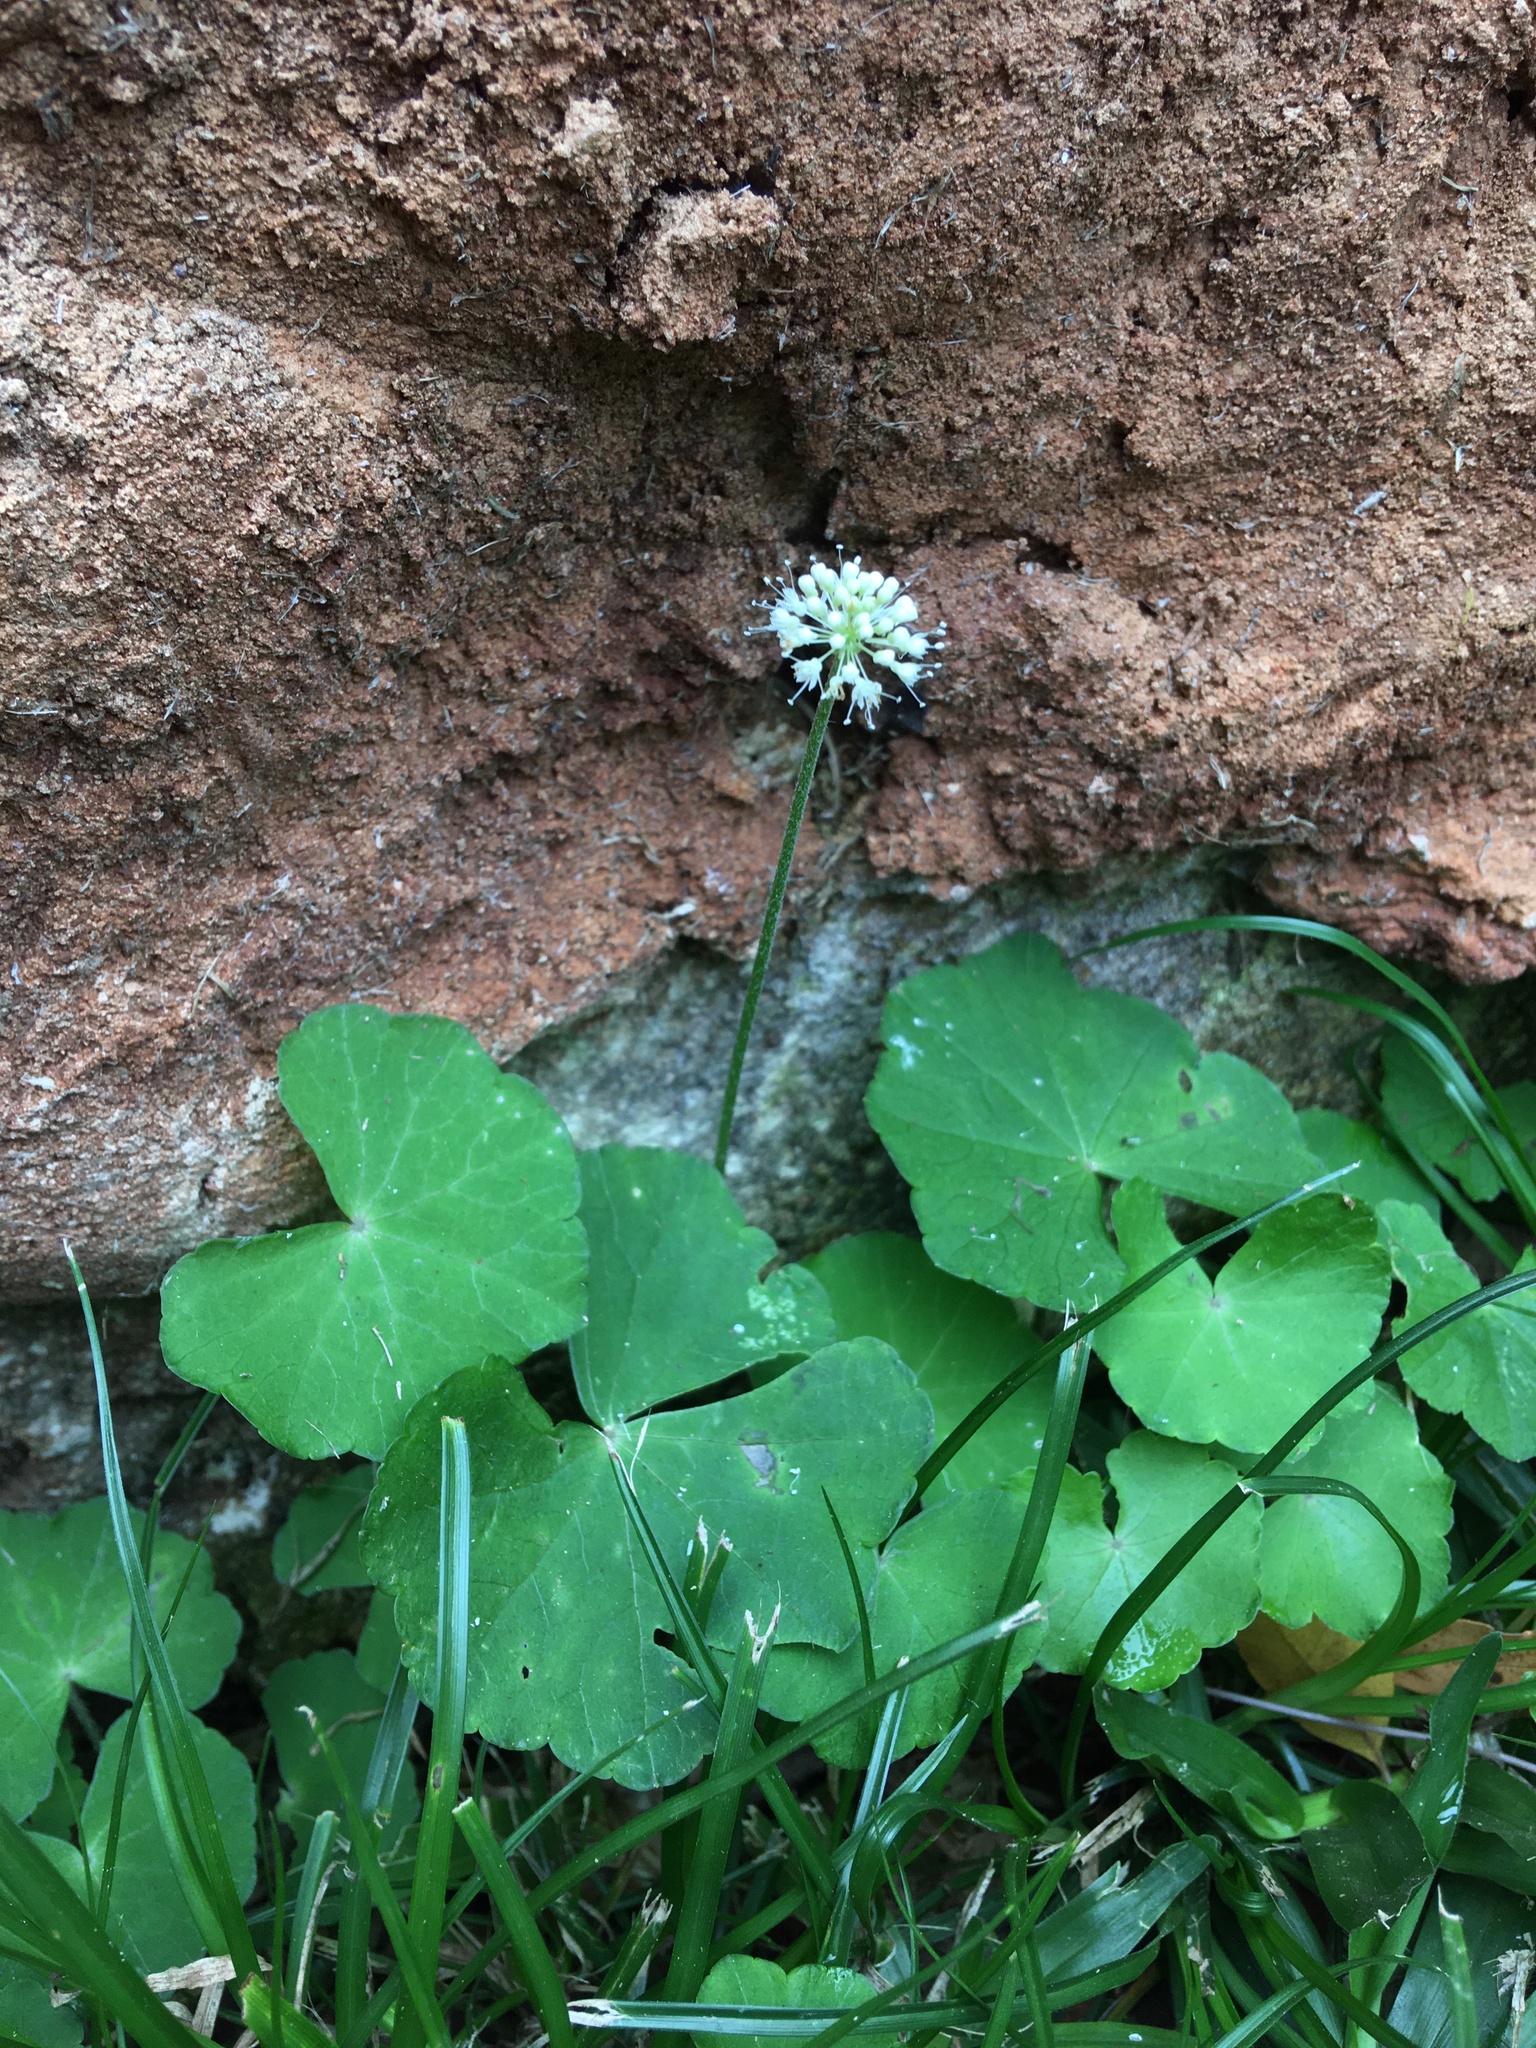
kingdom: Plantae
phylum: Tracheophyta
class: Magnoliopsida
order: Apiales
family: Araliaceae
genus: Hydrocotyle
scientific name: Hydrocotyle leucocephala
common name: Brazilian pennywort
